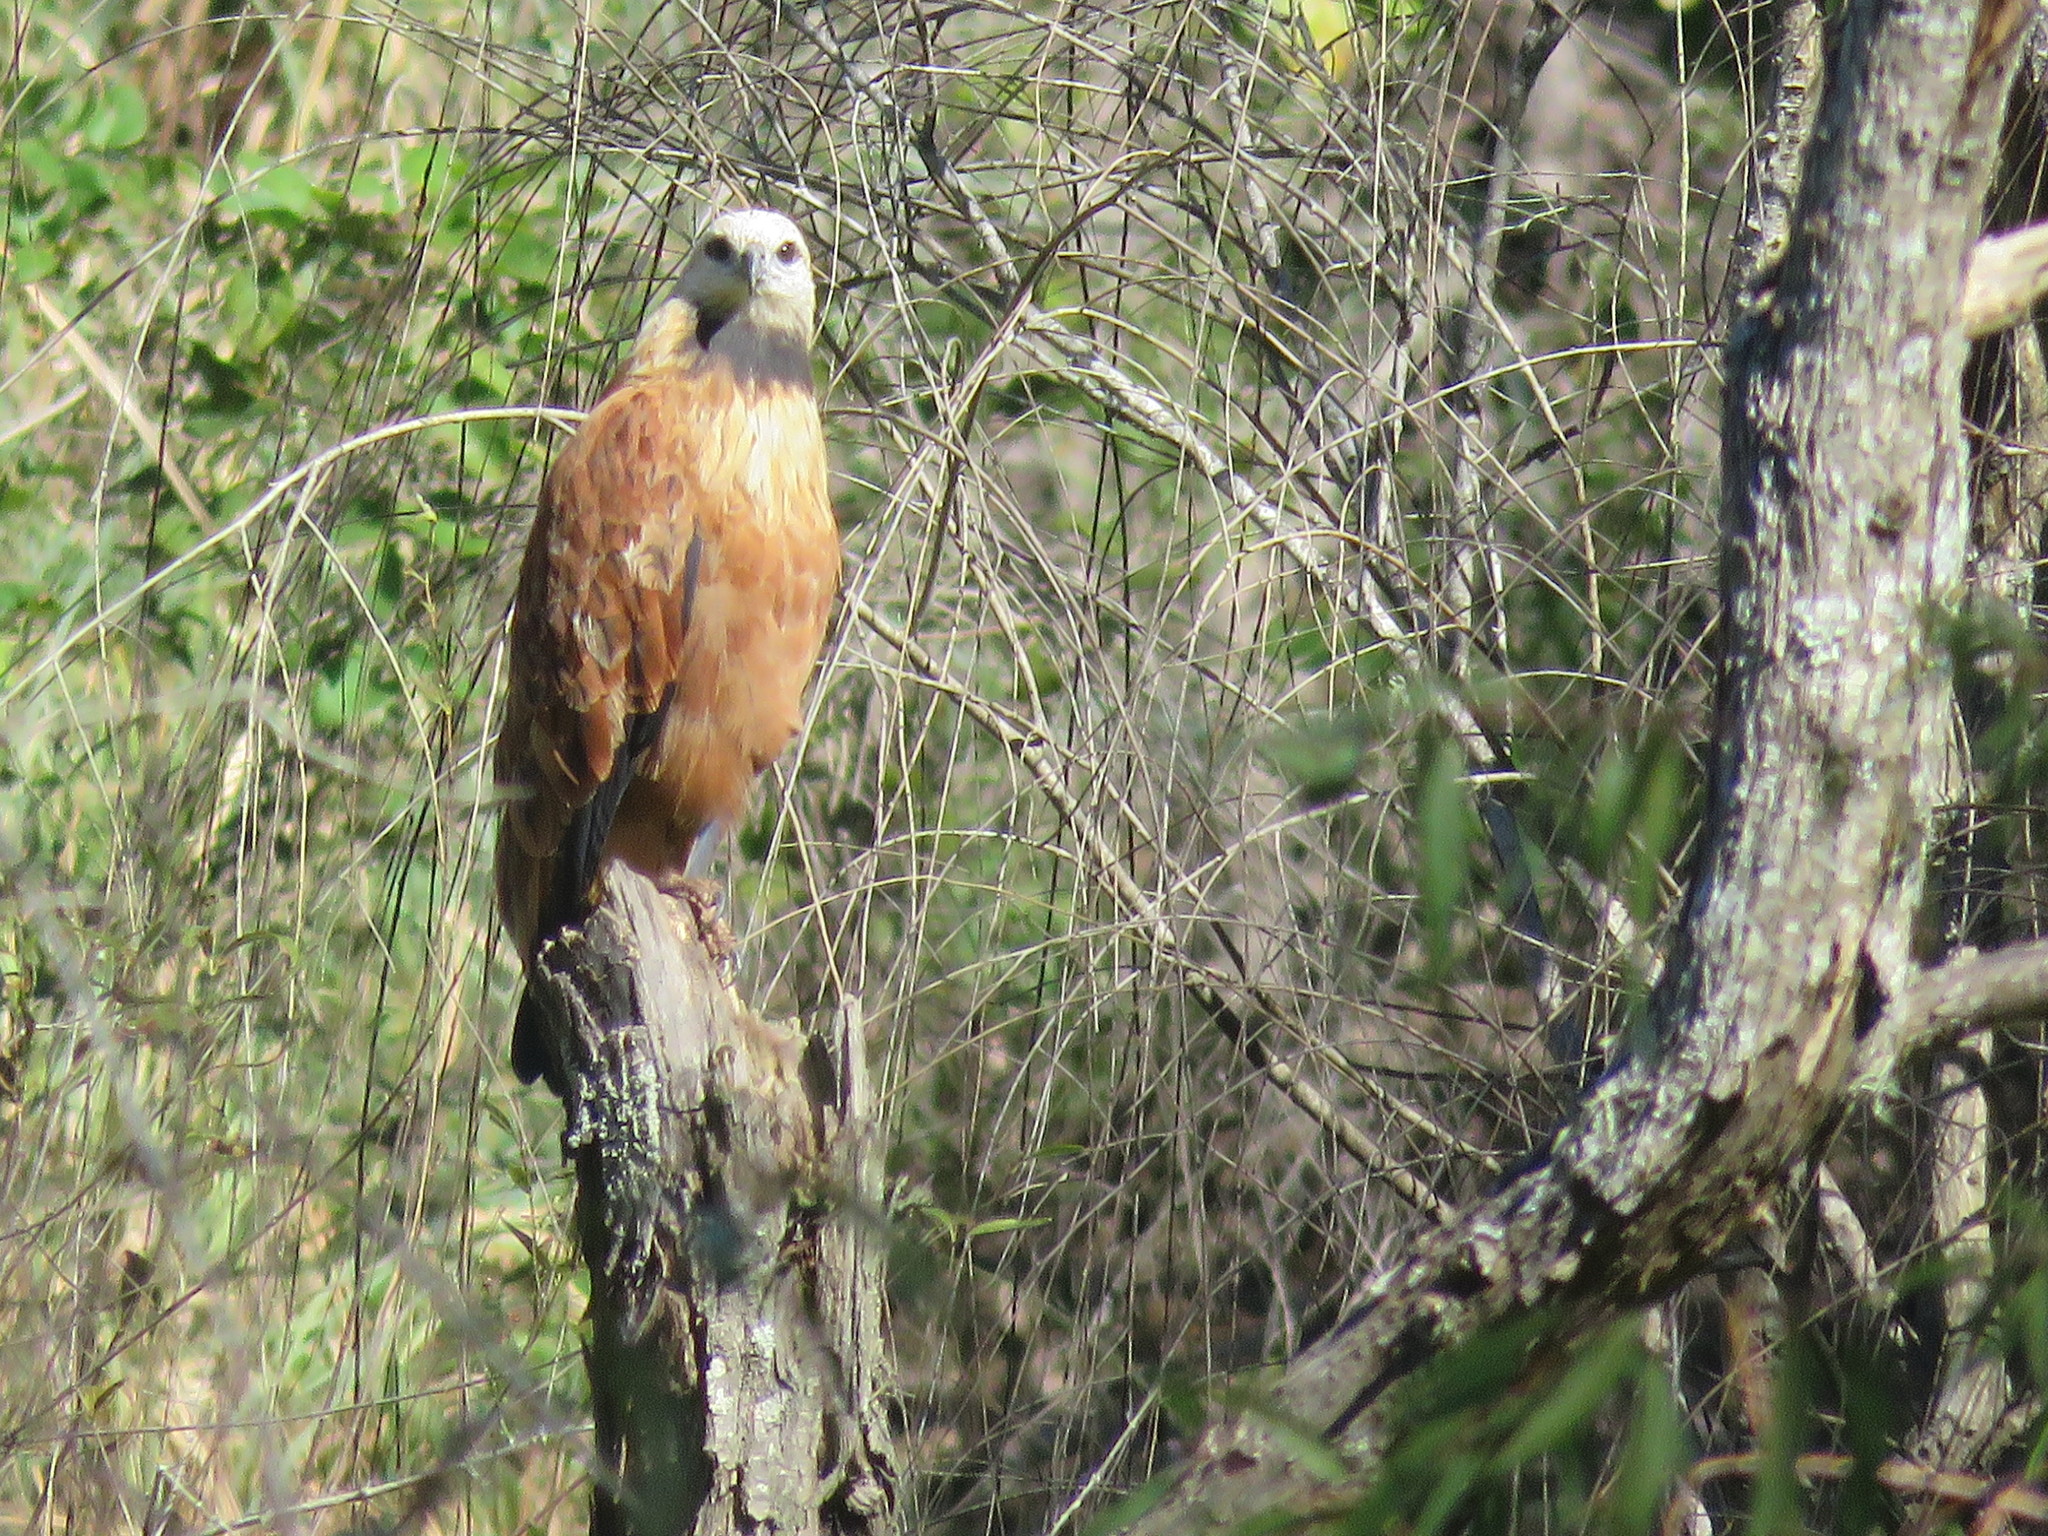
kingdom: Animalia
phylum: Chordata
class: Aves
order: Accipitriformes
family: Accipitridae
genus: Busarellus
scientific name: Busarellus nigricollis
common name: Black-collared hawk
